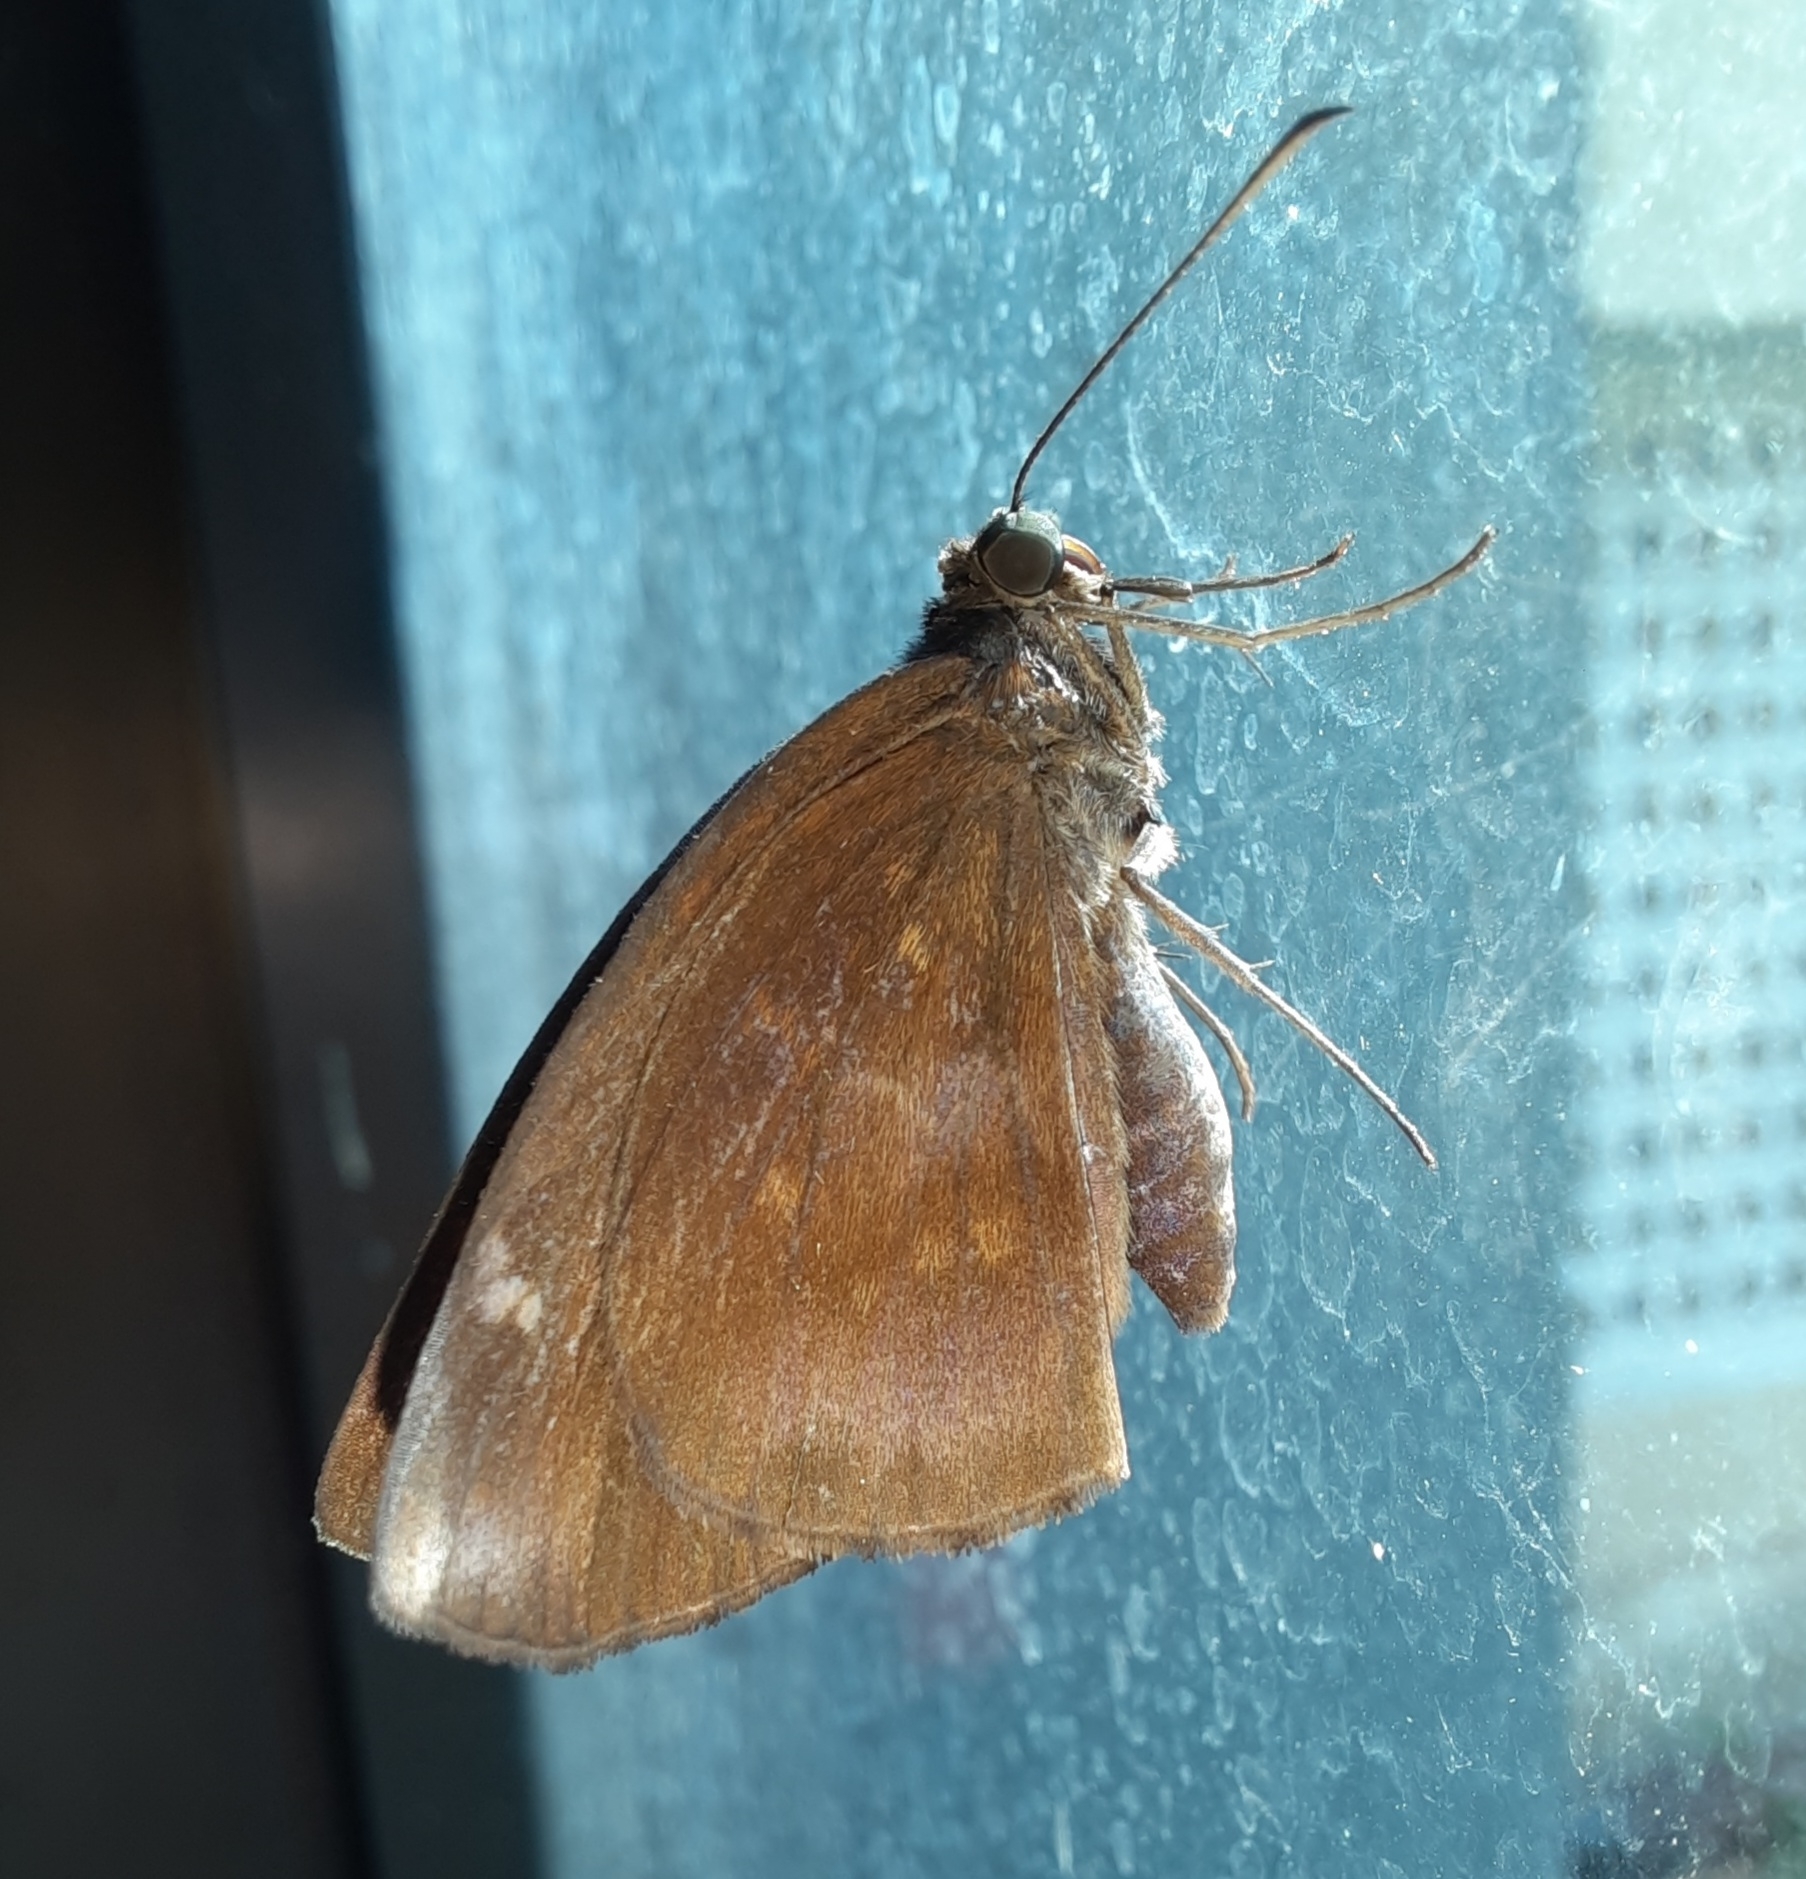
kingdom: Animalia
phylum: Arthropoda
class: Insecta
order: Lepidoptera
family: Hesperiidae
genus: Psolos
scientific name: Psolos fuligo
